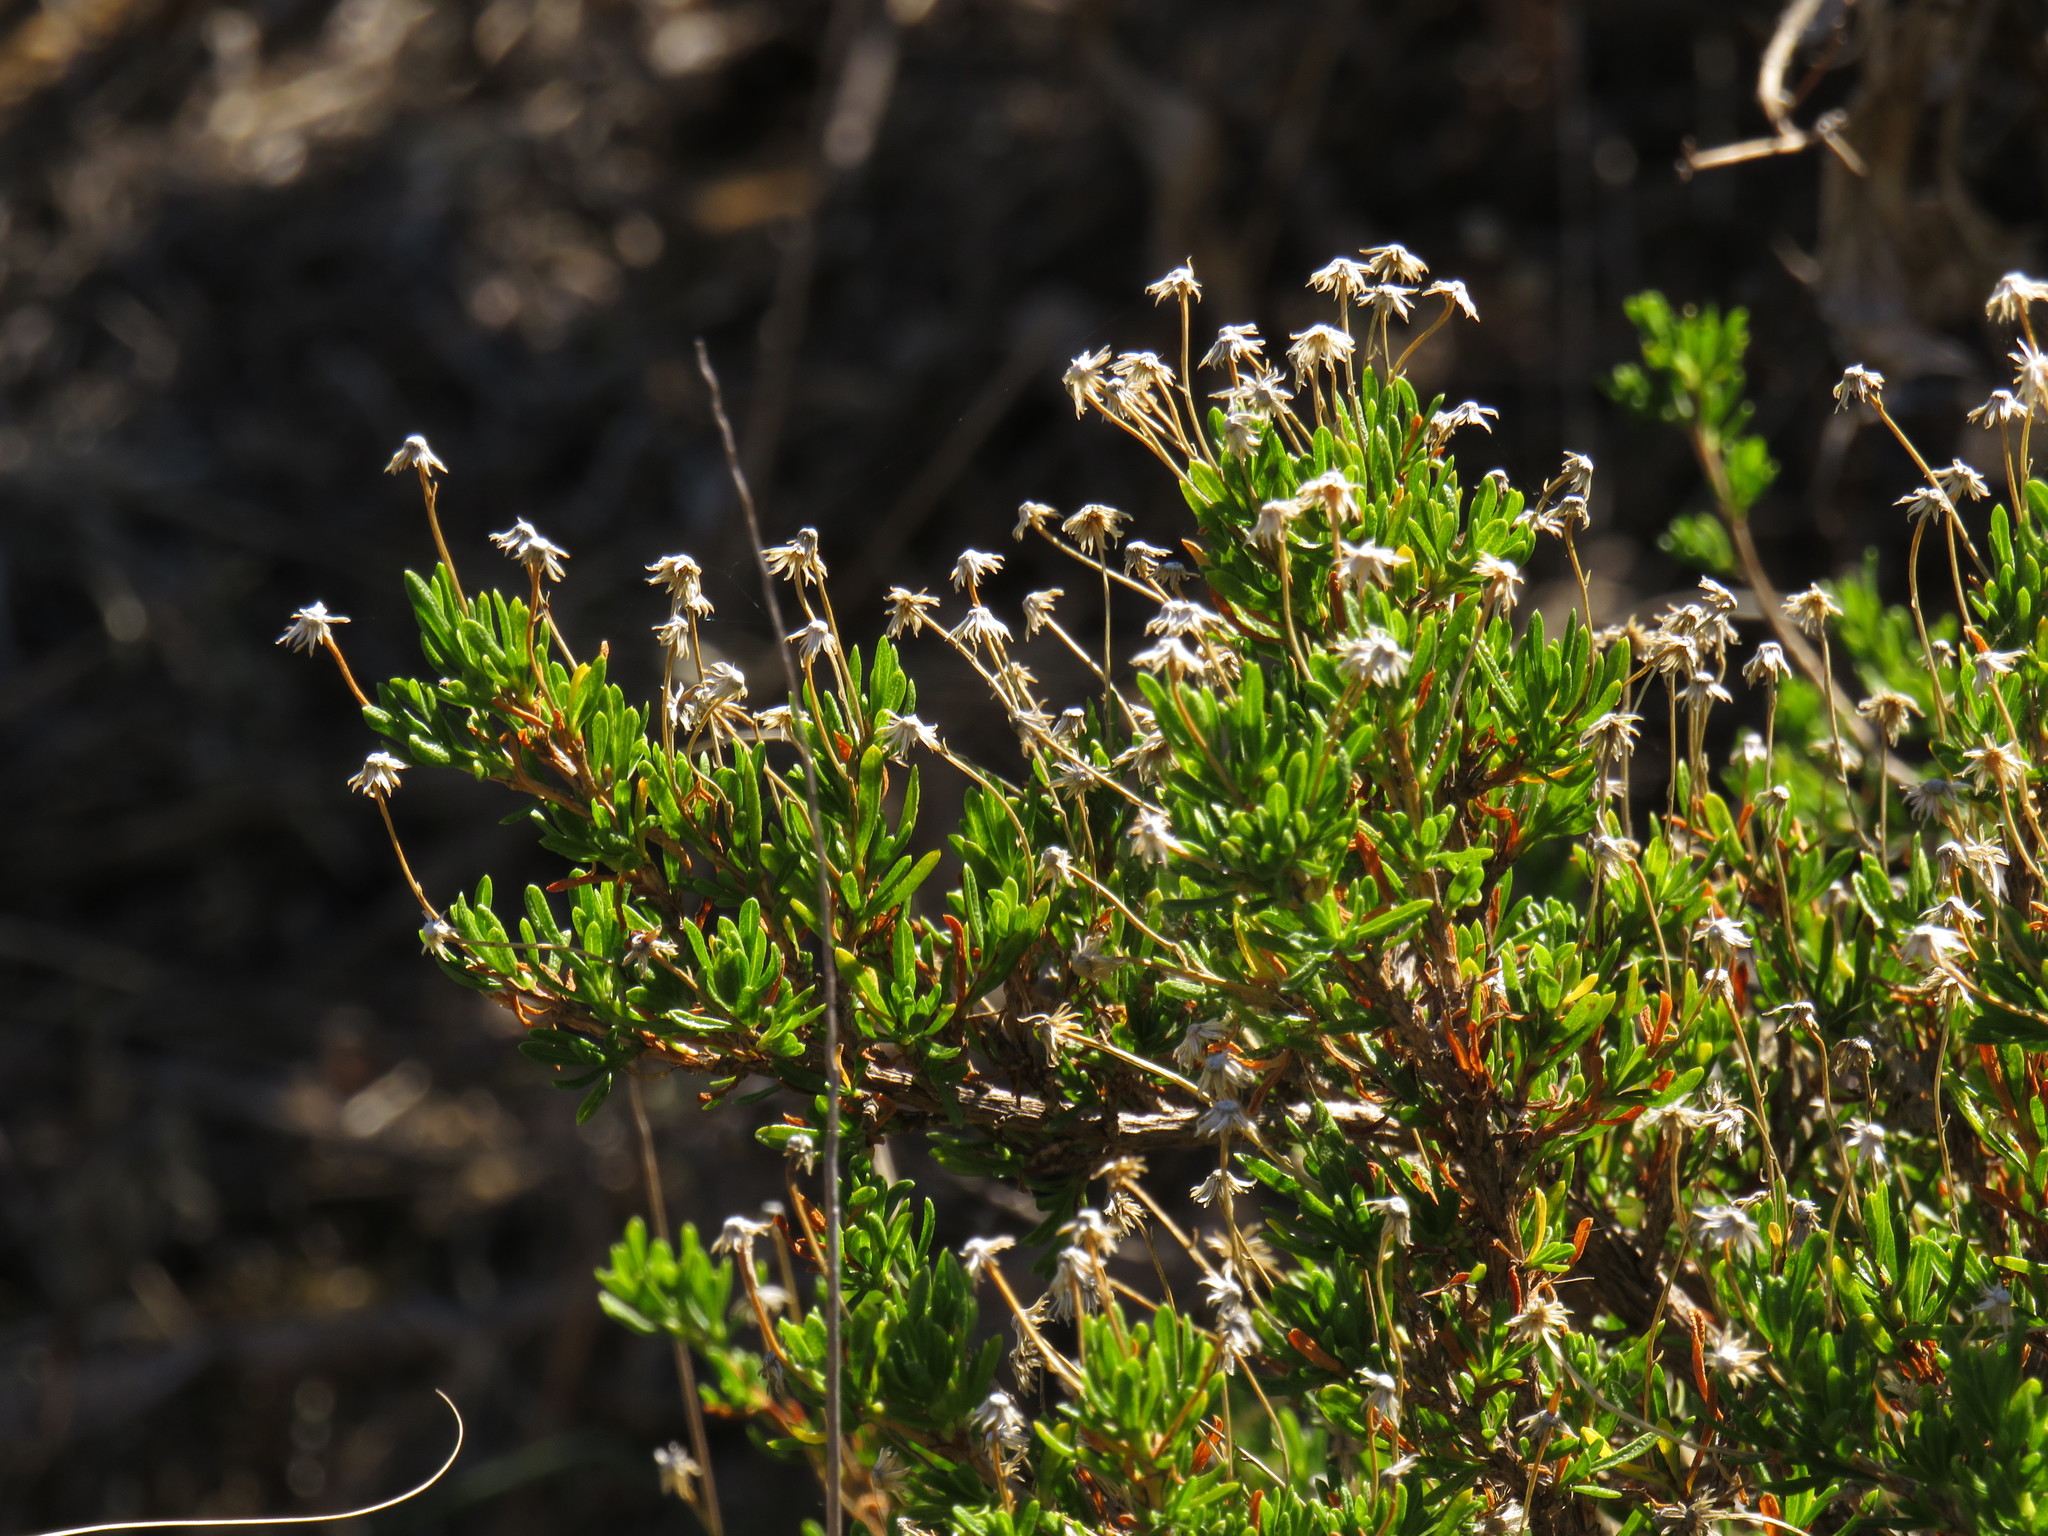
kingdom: Plantae
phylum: Tracheophyta
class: Magnoliopsida
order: Asterales
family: Asteraceae
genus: Felicia
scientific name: Felicia fruticosa
